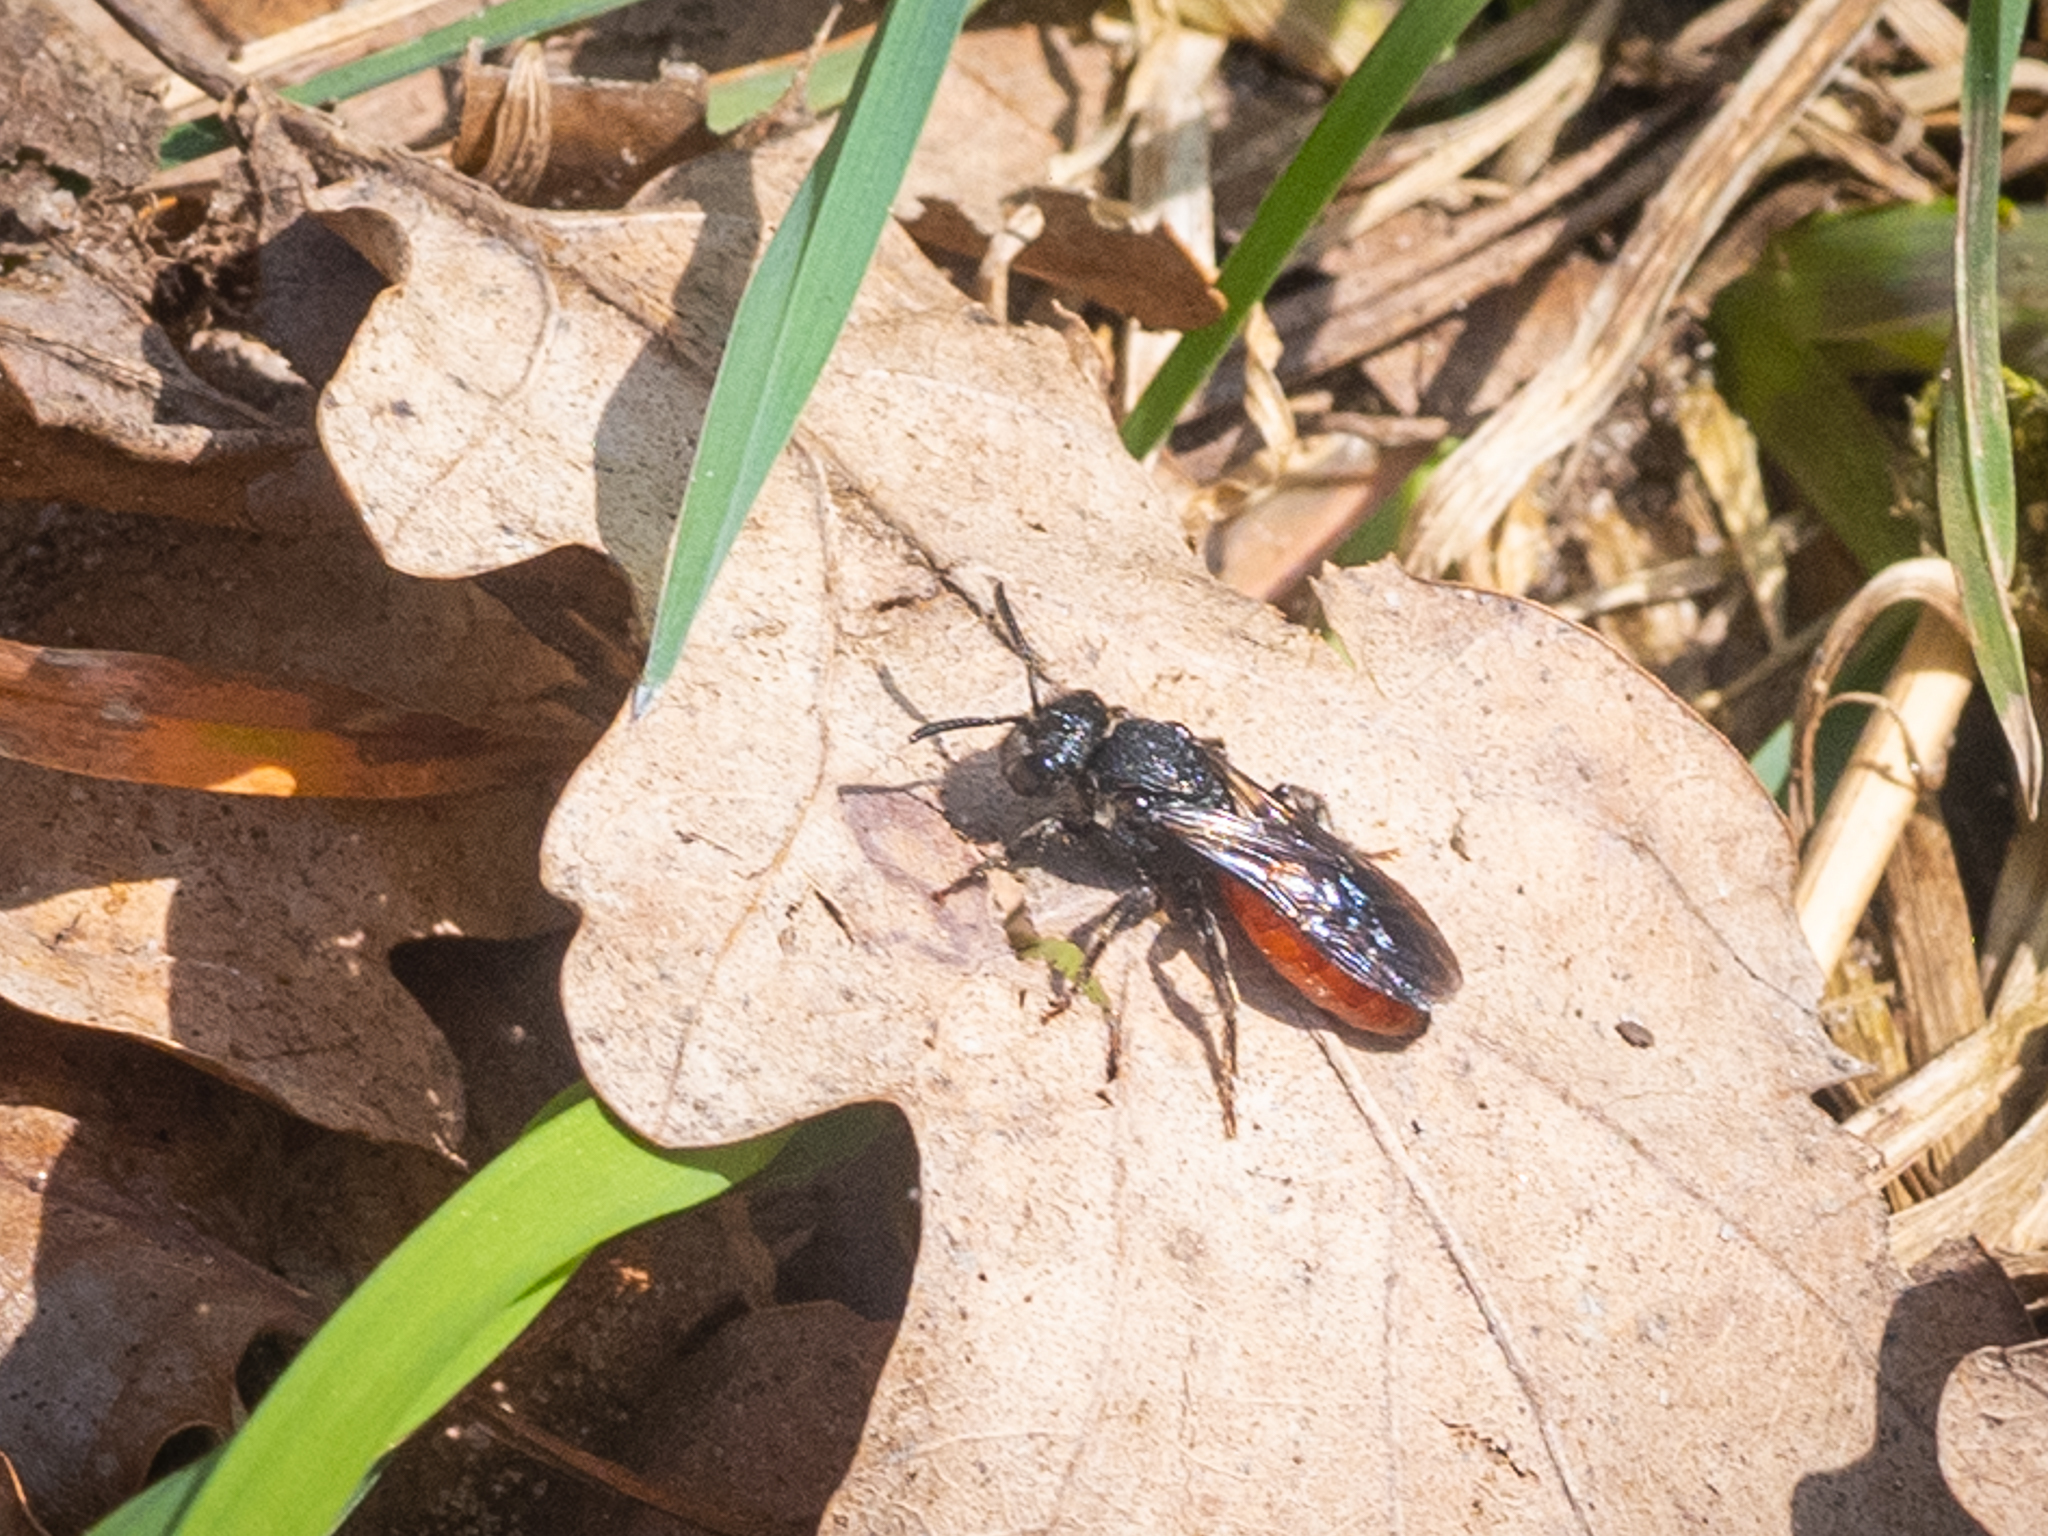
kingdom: Animalia
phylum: Arthropoda
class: Insecta
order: Hymenoptera
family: Halictidae
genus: Sphecodes
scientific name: Sphecodes albilabris
